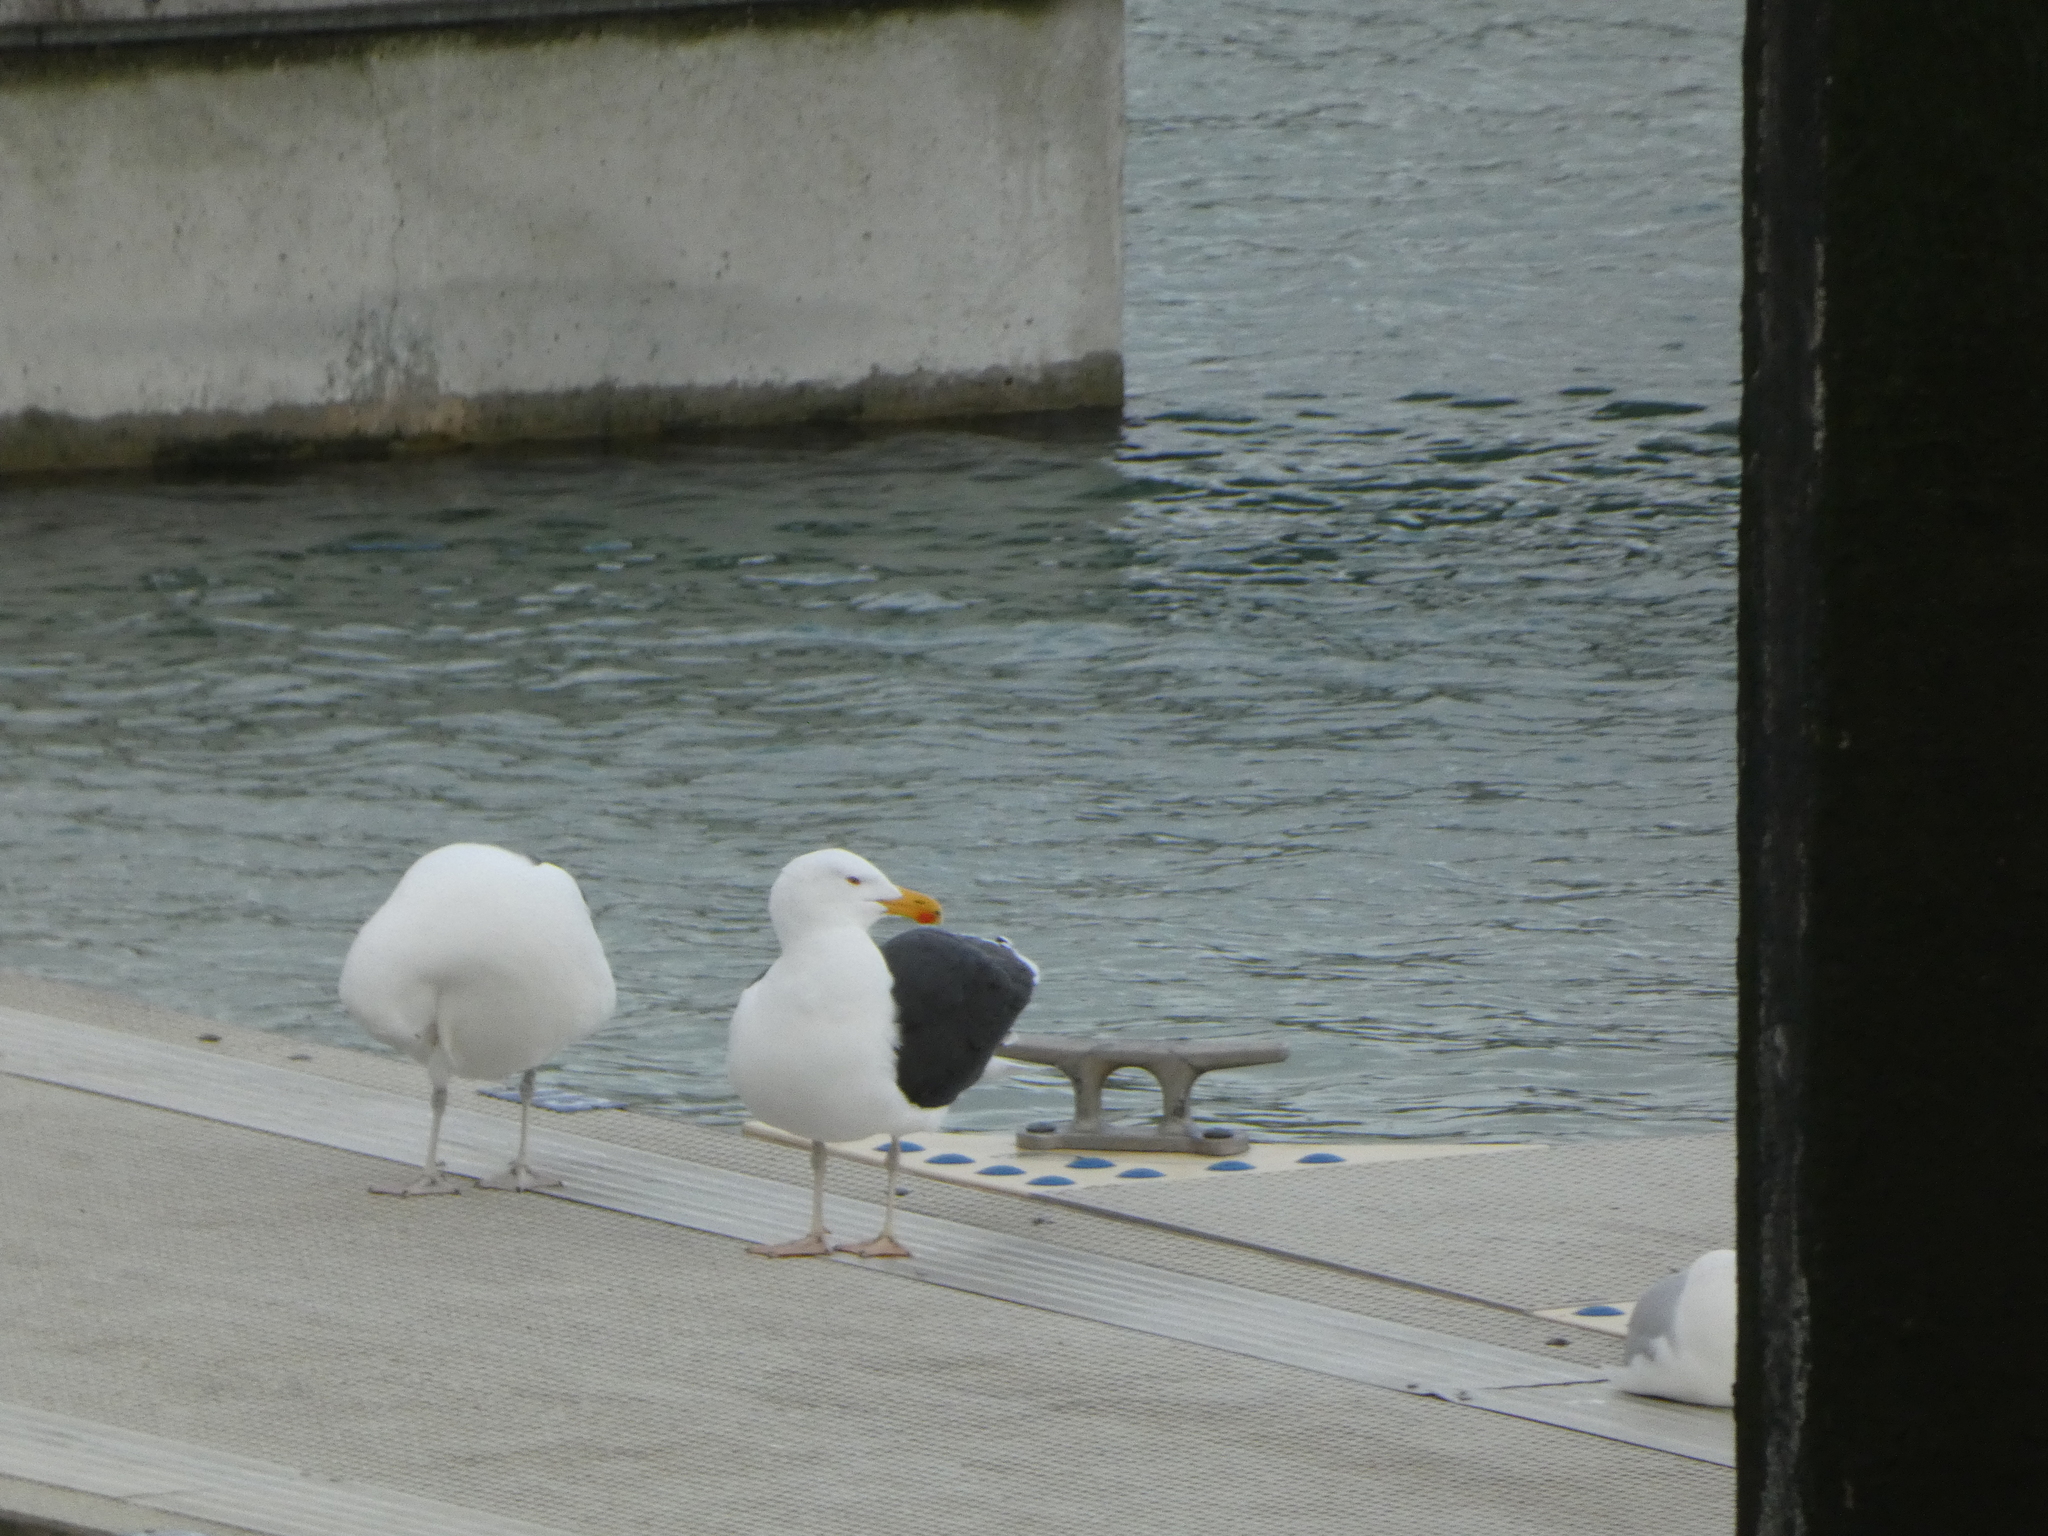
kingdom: Animalia
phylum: Chordata
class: Aves
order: Charadriiformes
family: Laridae
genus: Larus
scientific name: Larus marinus
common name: Great black-backed gull
